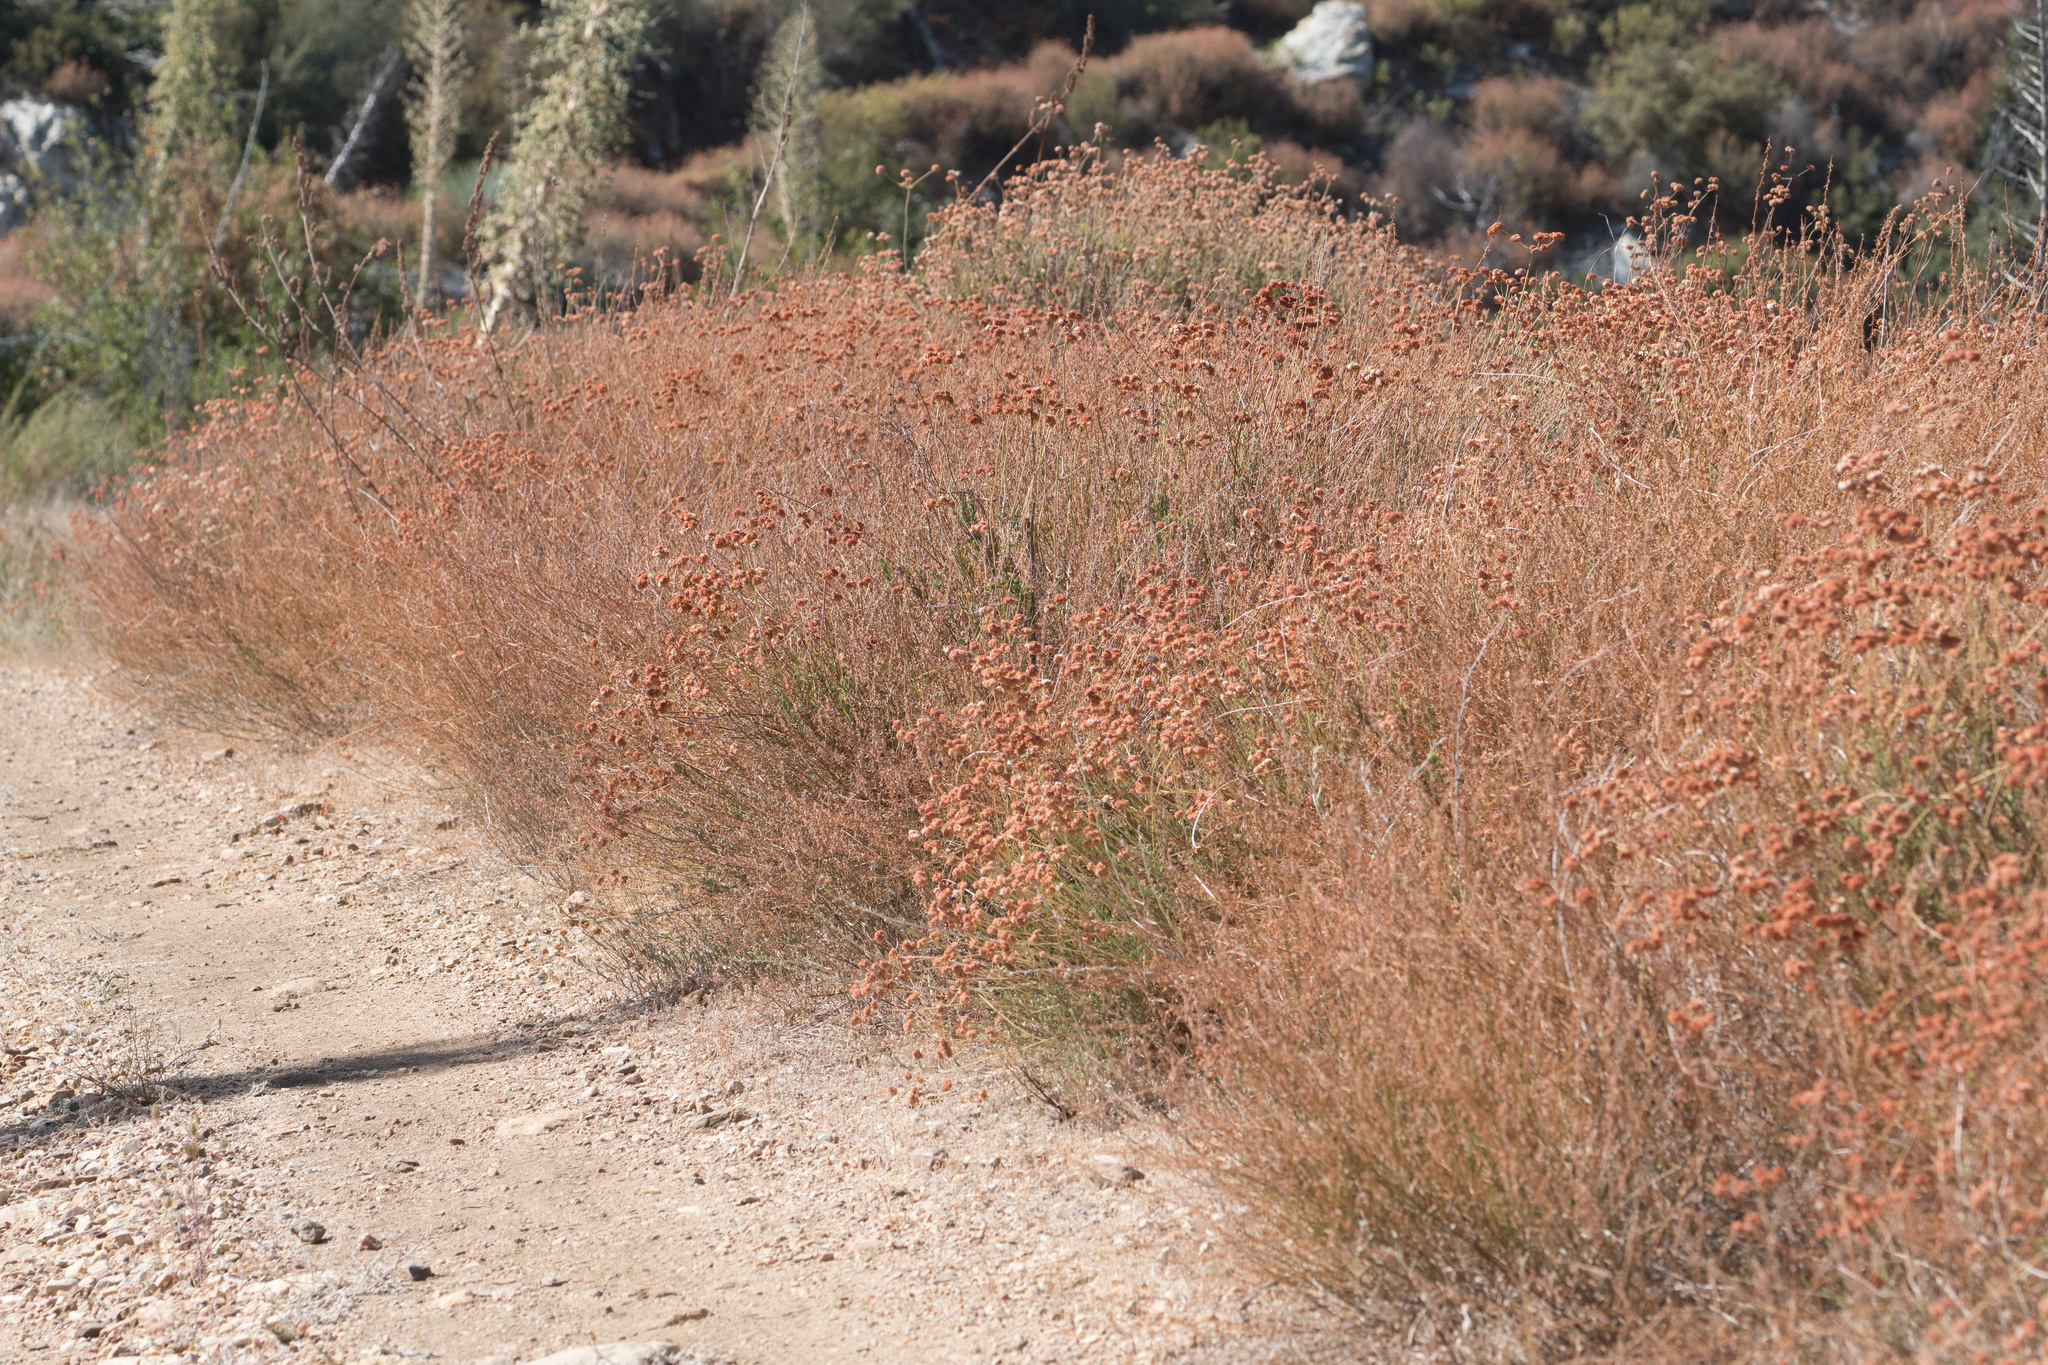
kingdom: Plantae
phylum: Tracheophyta
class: Magnoliopsida
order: Caryophyllales
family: Polygonaceae
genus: Eriogonum
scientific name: Eriogonum fasciculatum
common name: California wild buckwheat
